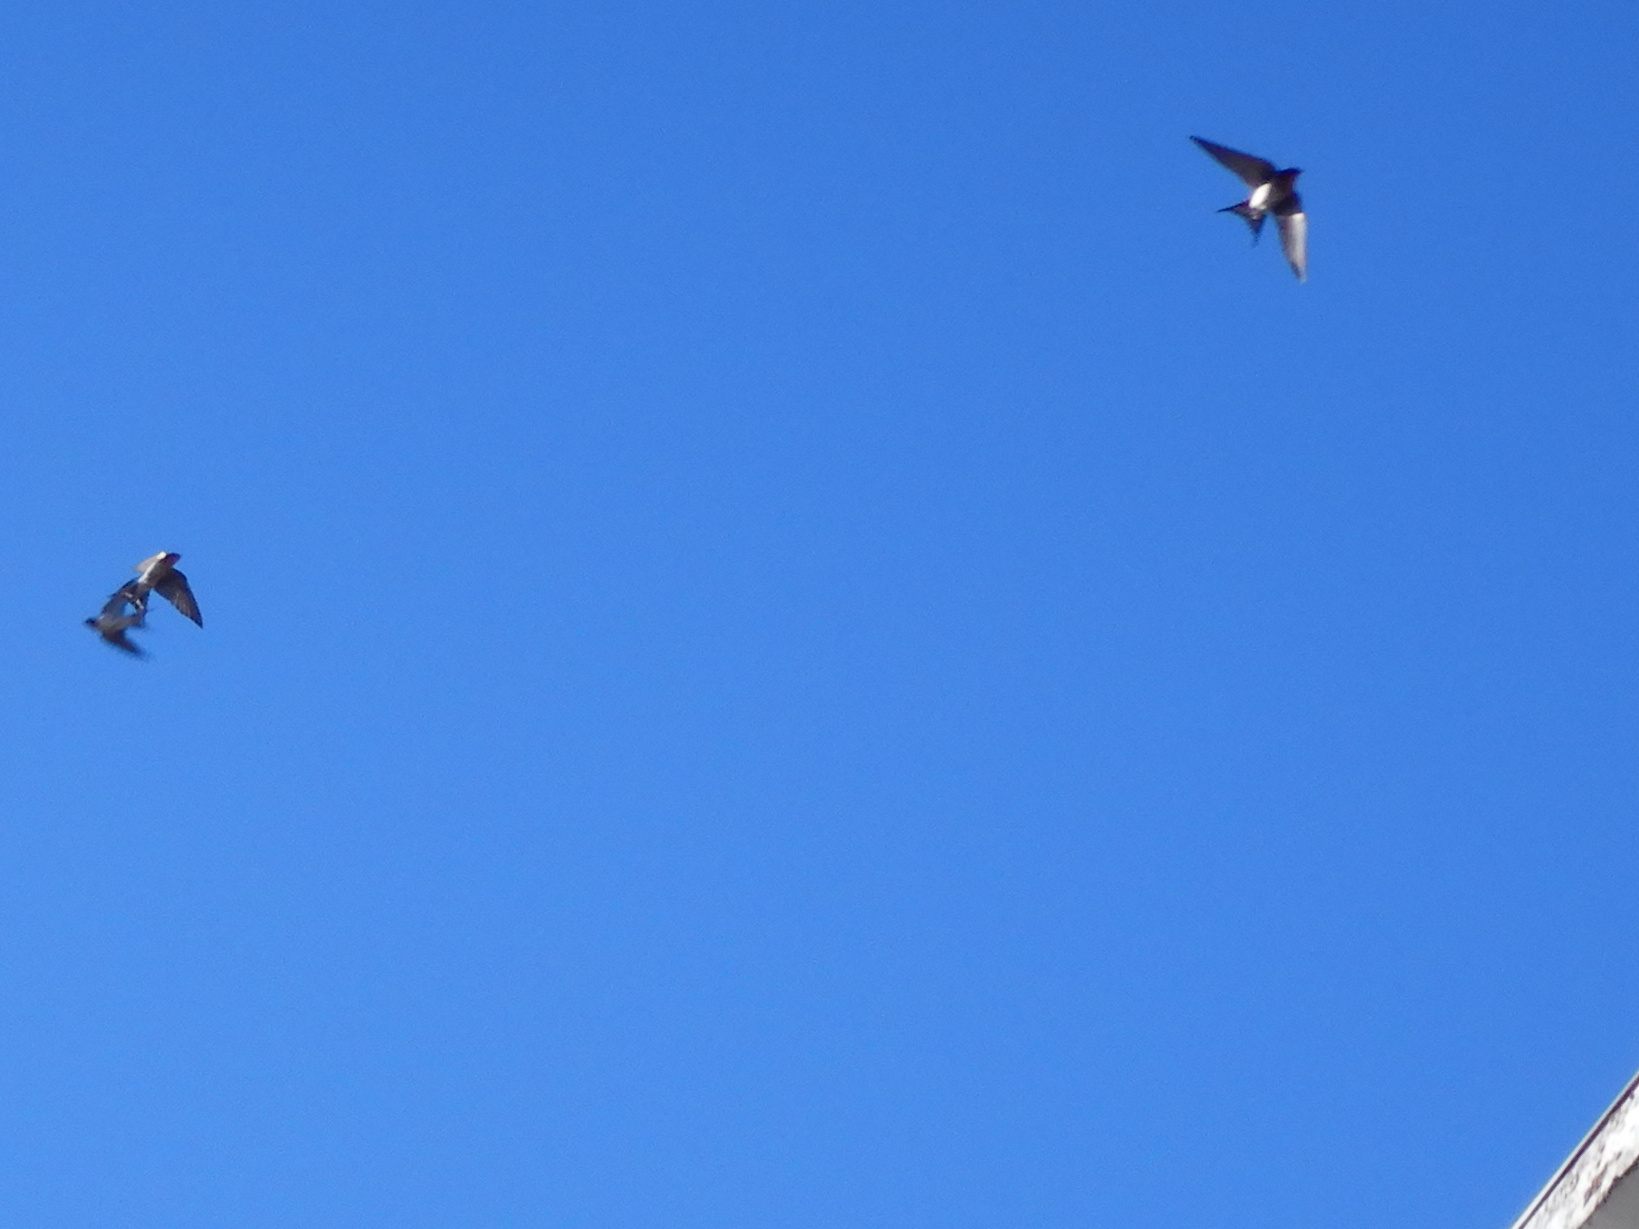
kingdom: Animalia
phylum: Chordata
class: Aves
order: Passeriformes
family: Hirundinidae
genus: Hirundo
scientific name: Hirundo neoxena
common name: Welcome swallow
